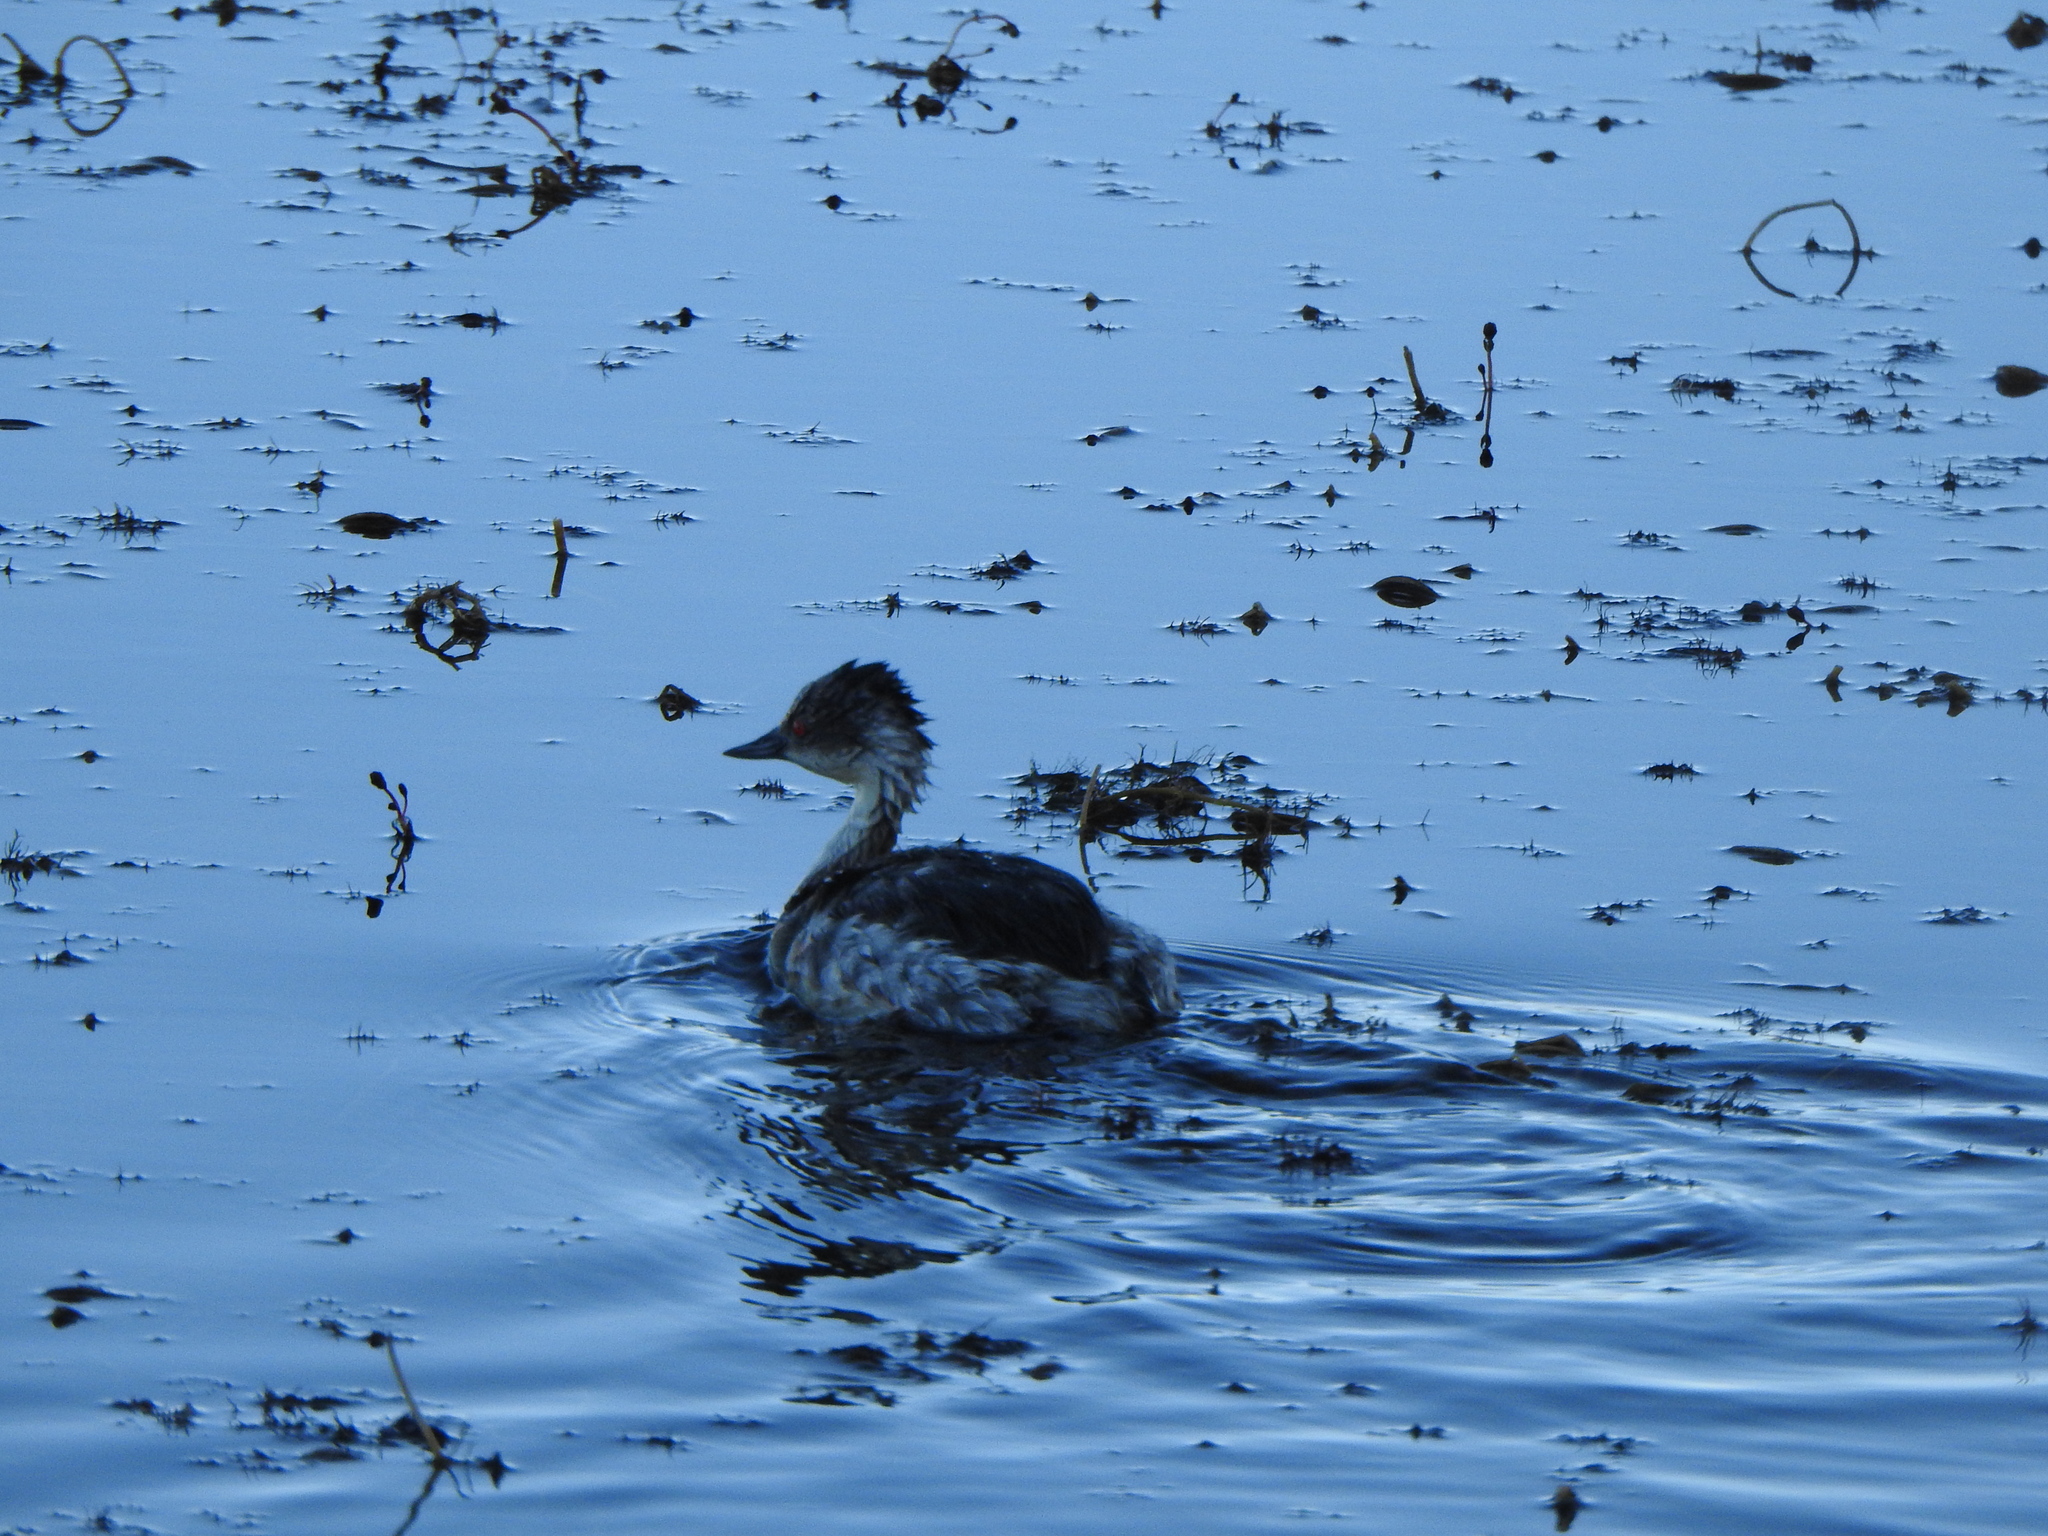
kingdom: Animalia
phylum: Chordata
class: Aves
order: Podicipediformes
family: Podicipedidae
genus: Podiceps
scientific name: Podiceps occipitalis
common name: Silvery grebe
